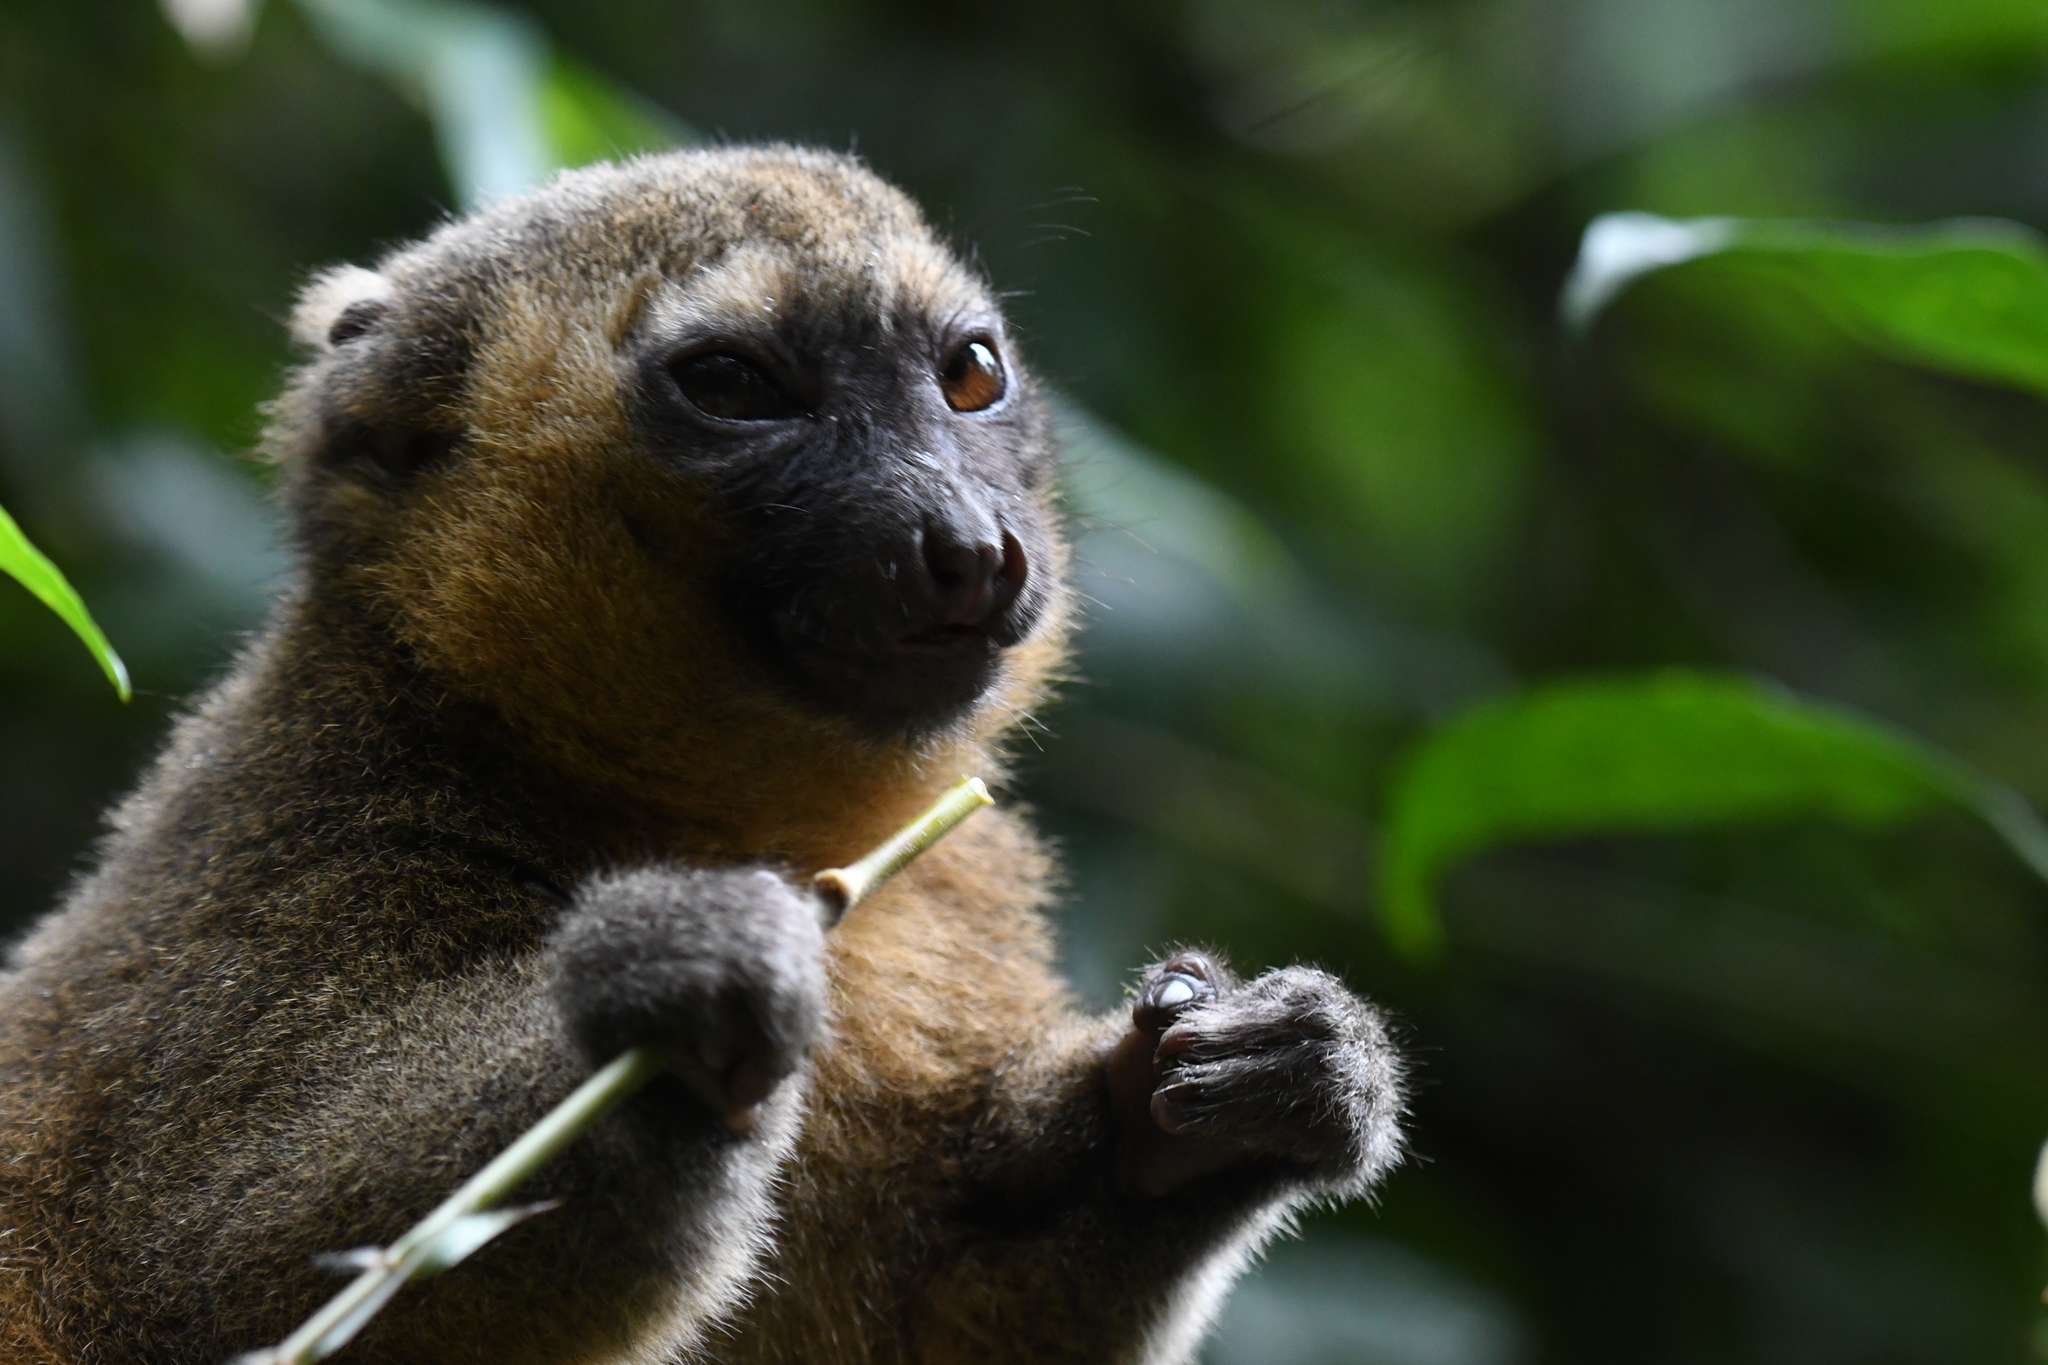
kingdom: Animalia
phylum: Chordata
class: Mammalia
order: Primates
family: Lemuridae
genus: Hapalemur
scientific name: Hapalemur aureus
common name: Golden bamboo lemur
